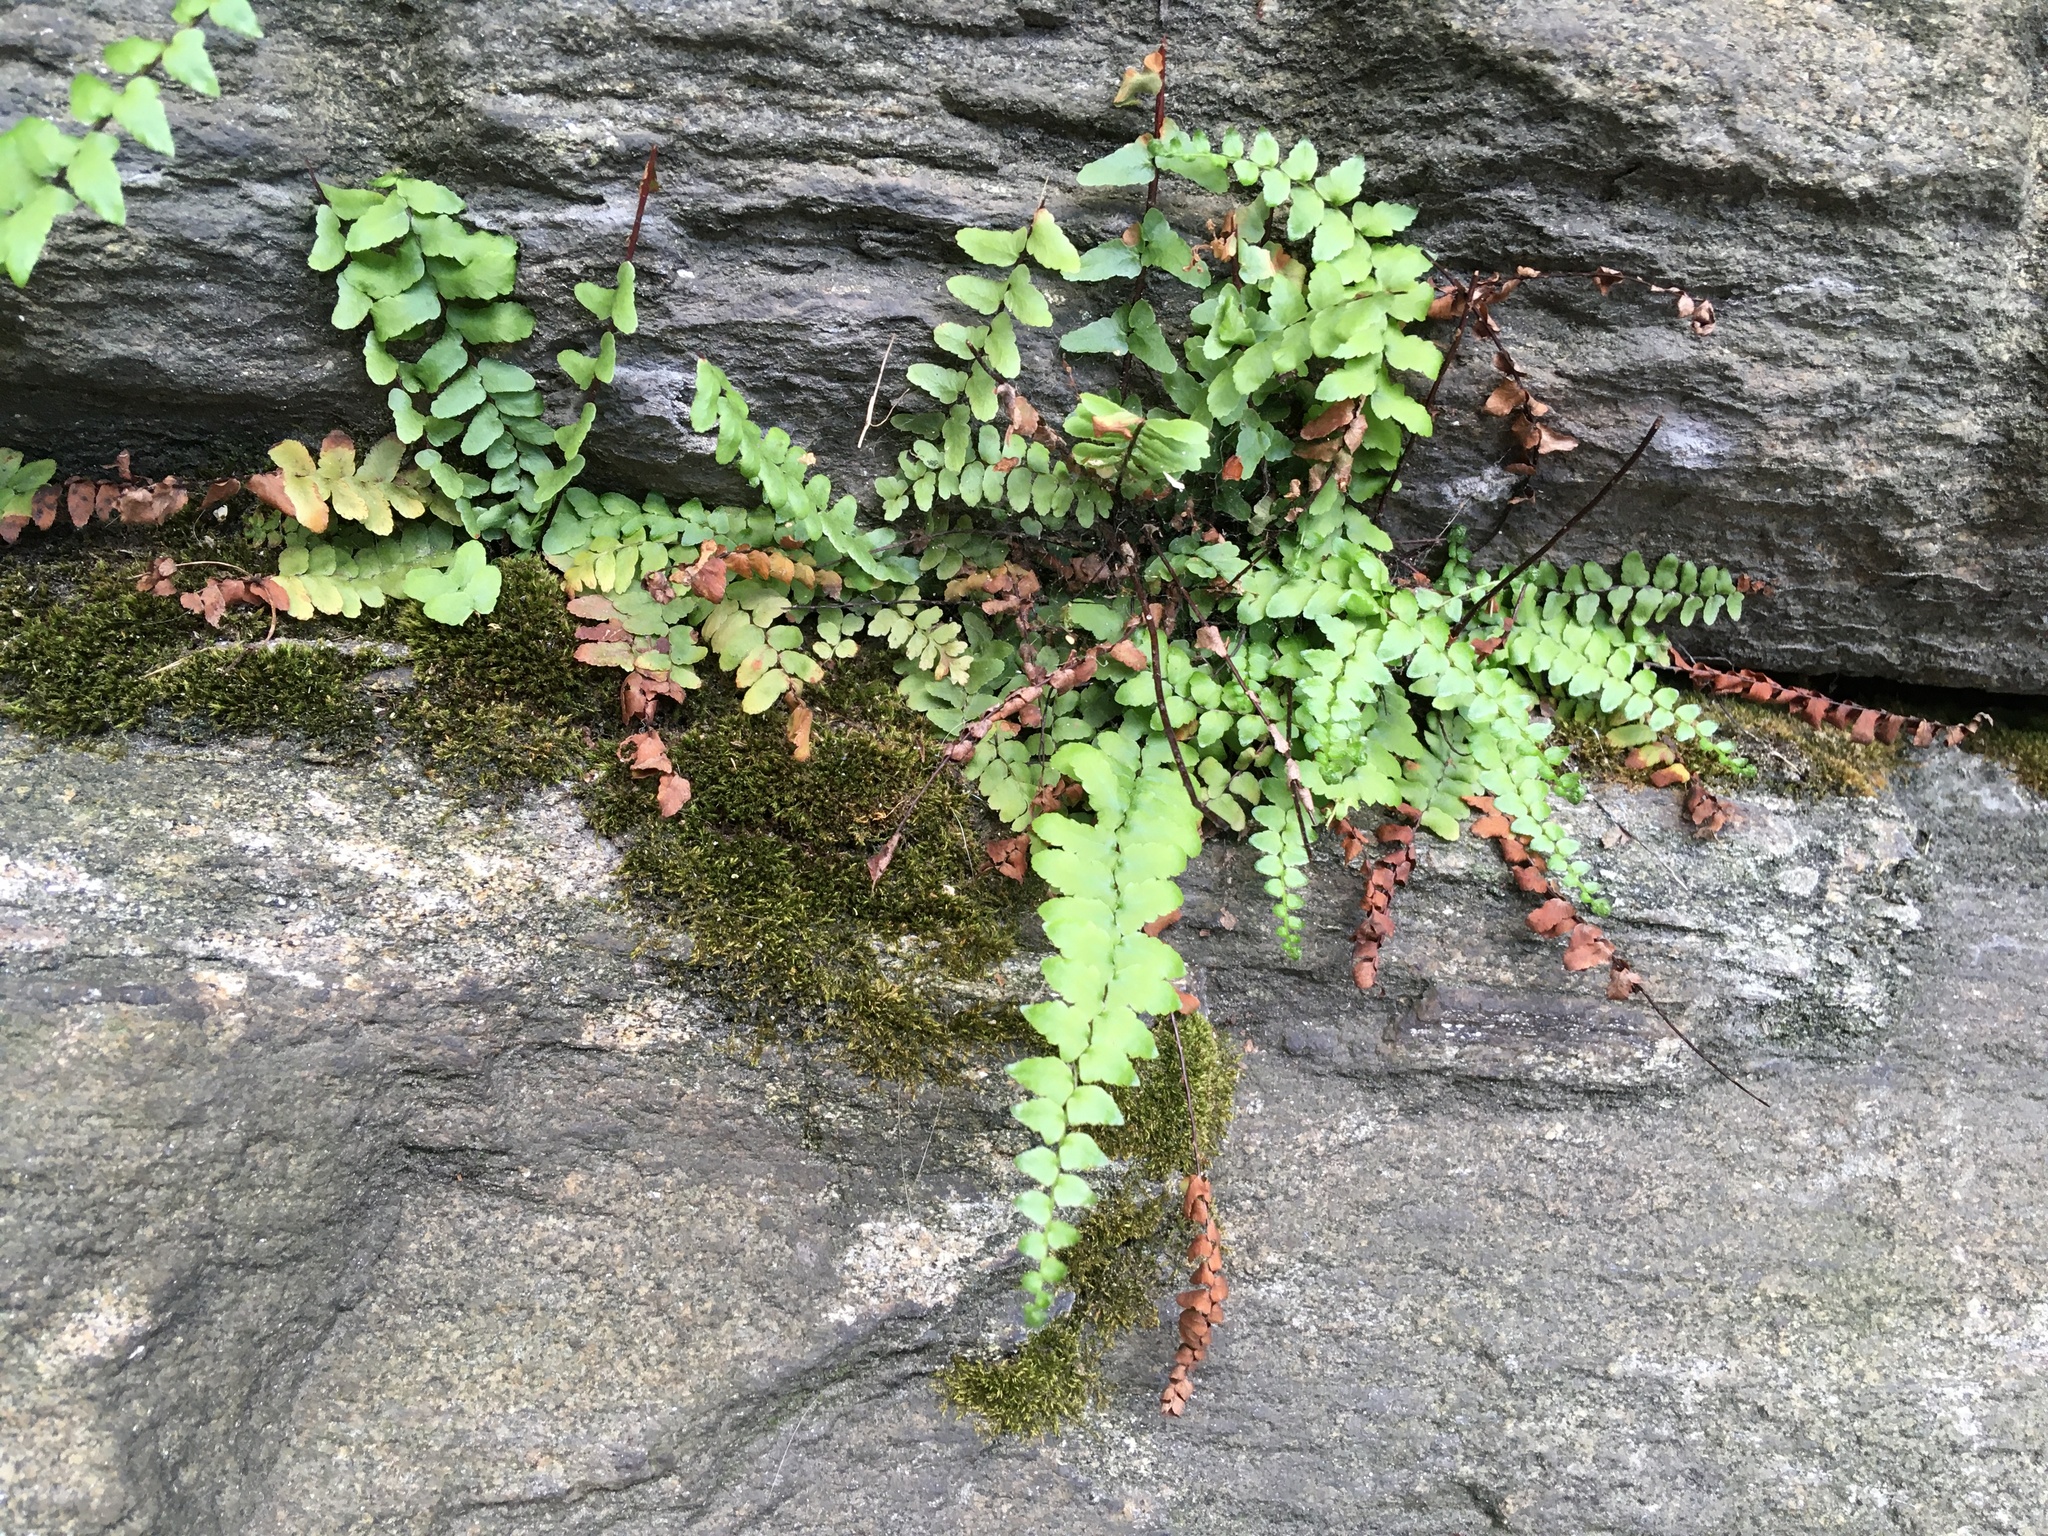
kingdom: Plantae
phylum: Tracheophyta
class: Polypodiopsida
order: Polypodiales
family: Aspleniaceae
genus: Asplenium
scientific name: Asplenium platyneuron
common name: Ebony spleenwort
